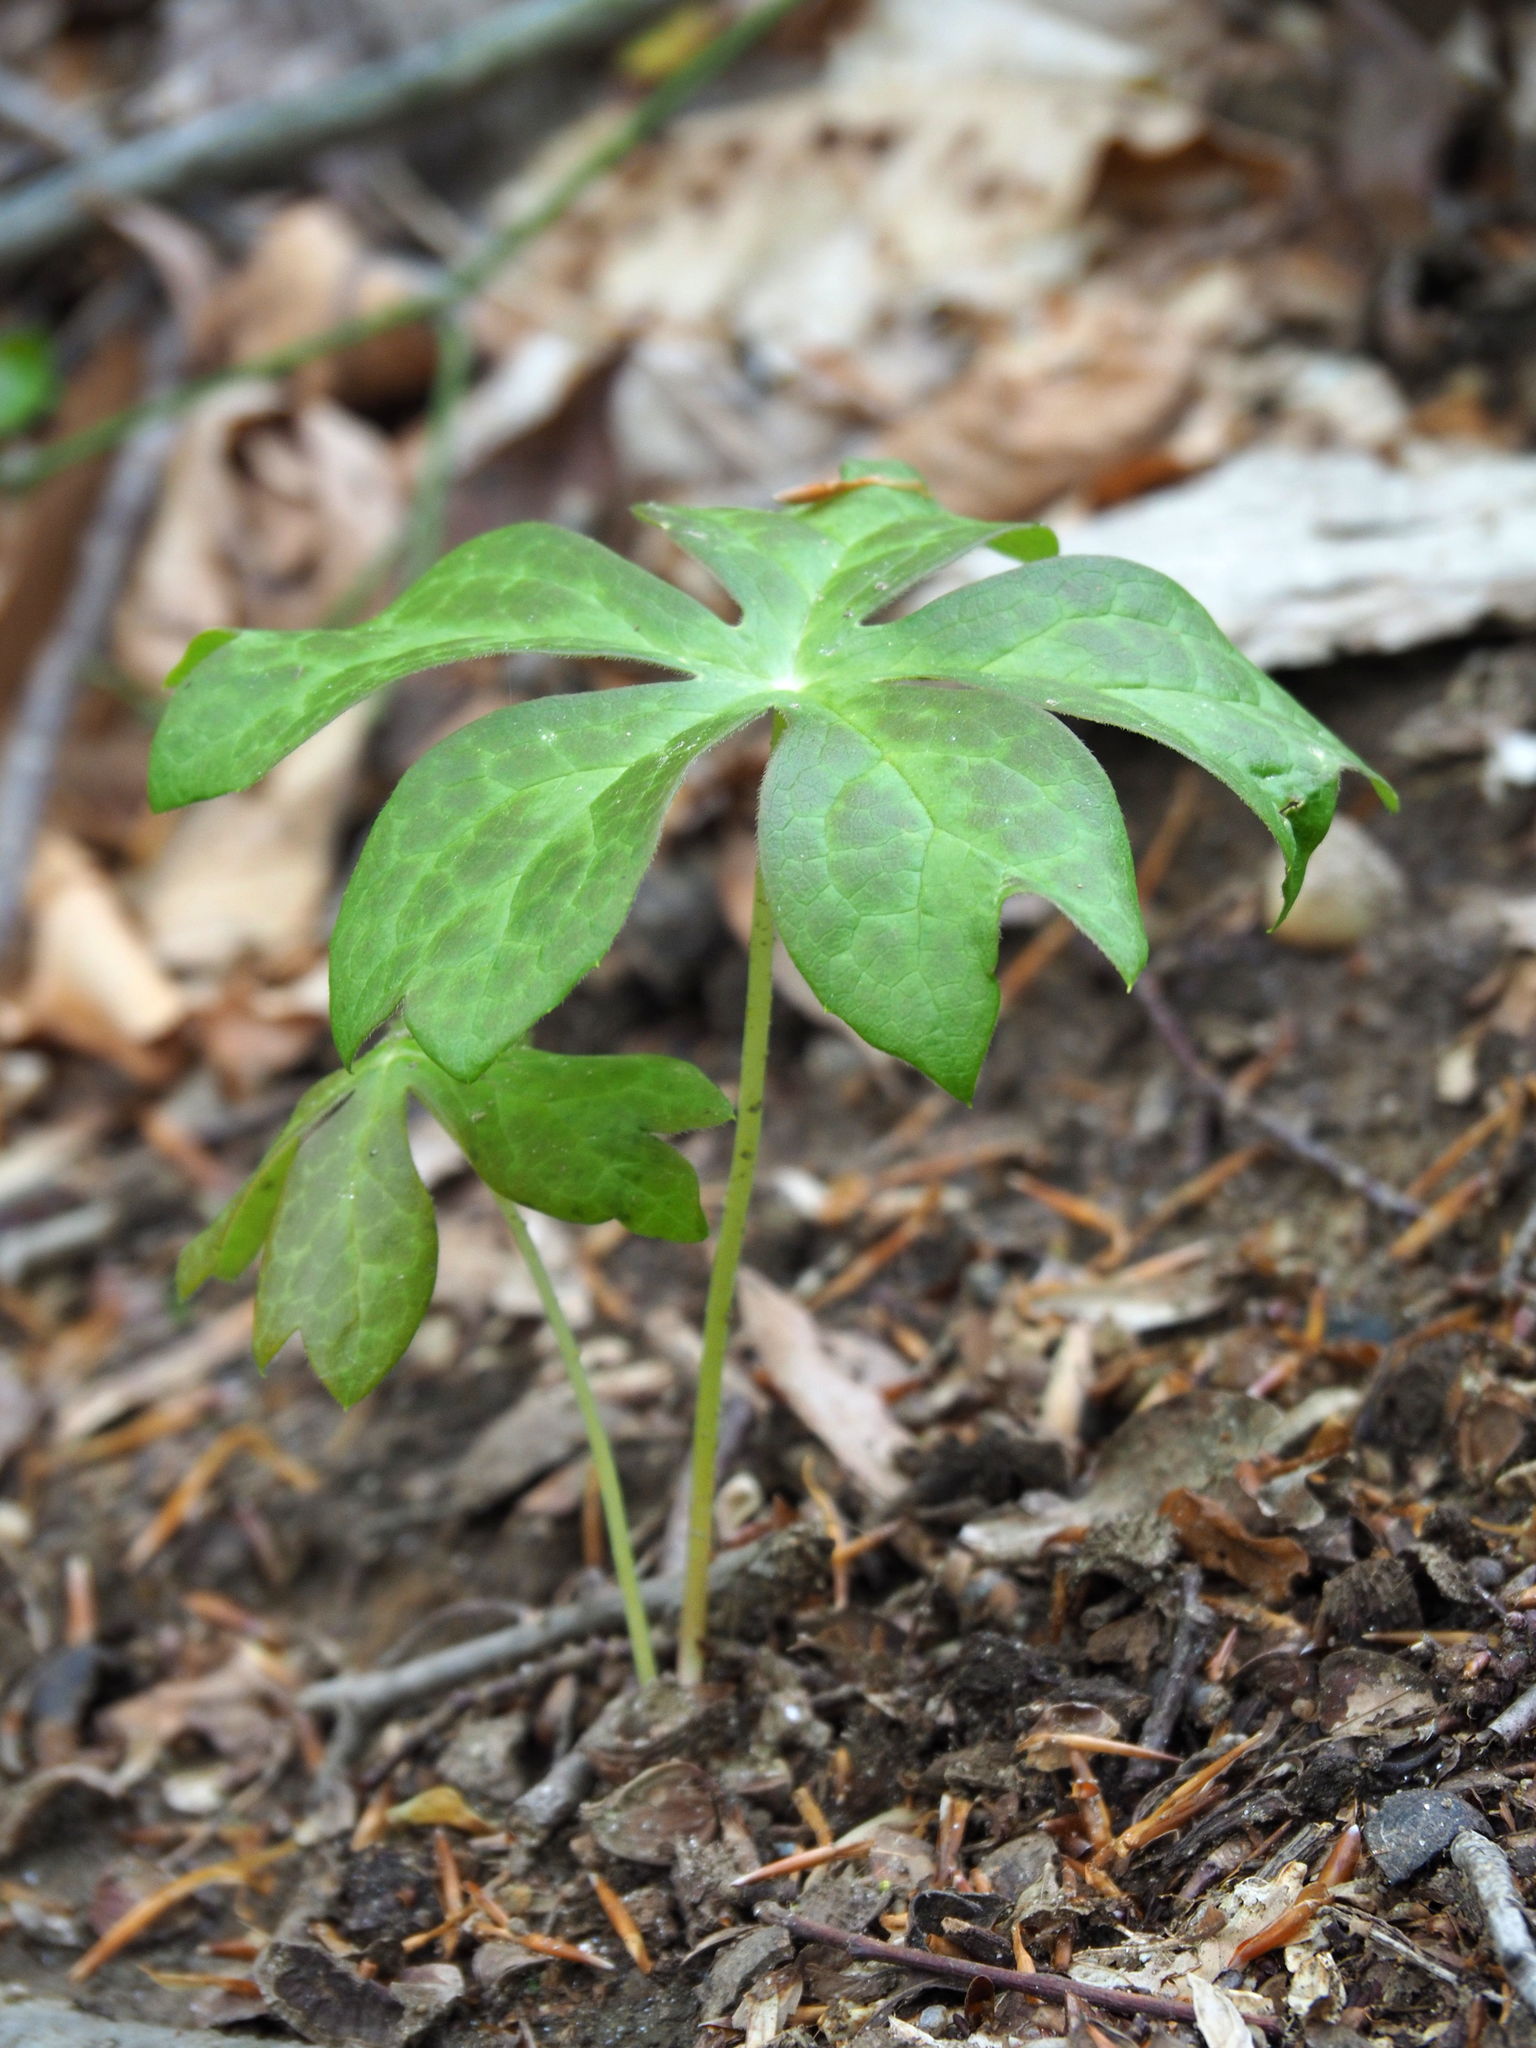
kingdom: Plantae
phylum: Tracheophyta
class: Magnoliopsida
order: Ranunculales
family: Berberidaceae
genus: Podophyllum
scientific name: Podophyllum peltatum
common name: Wild mandrake
